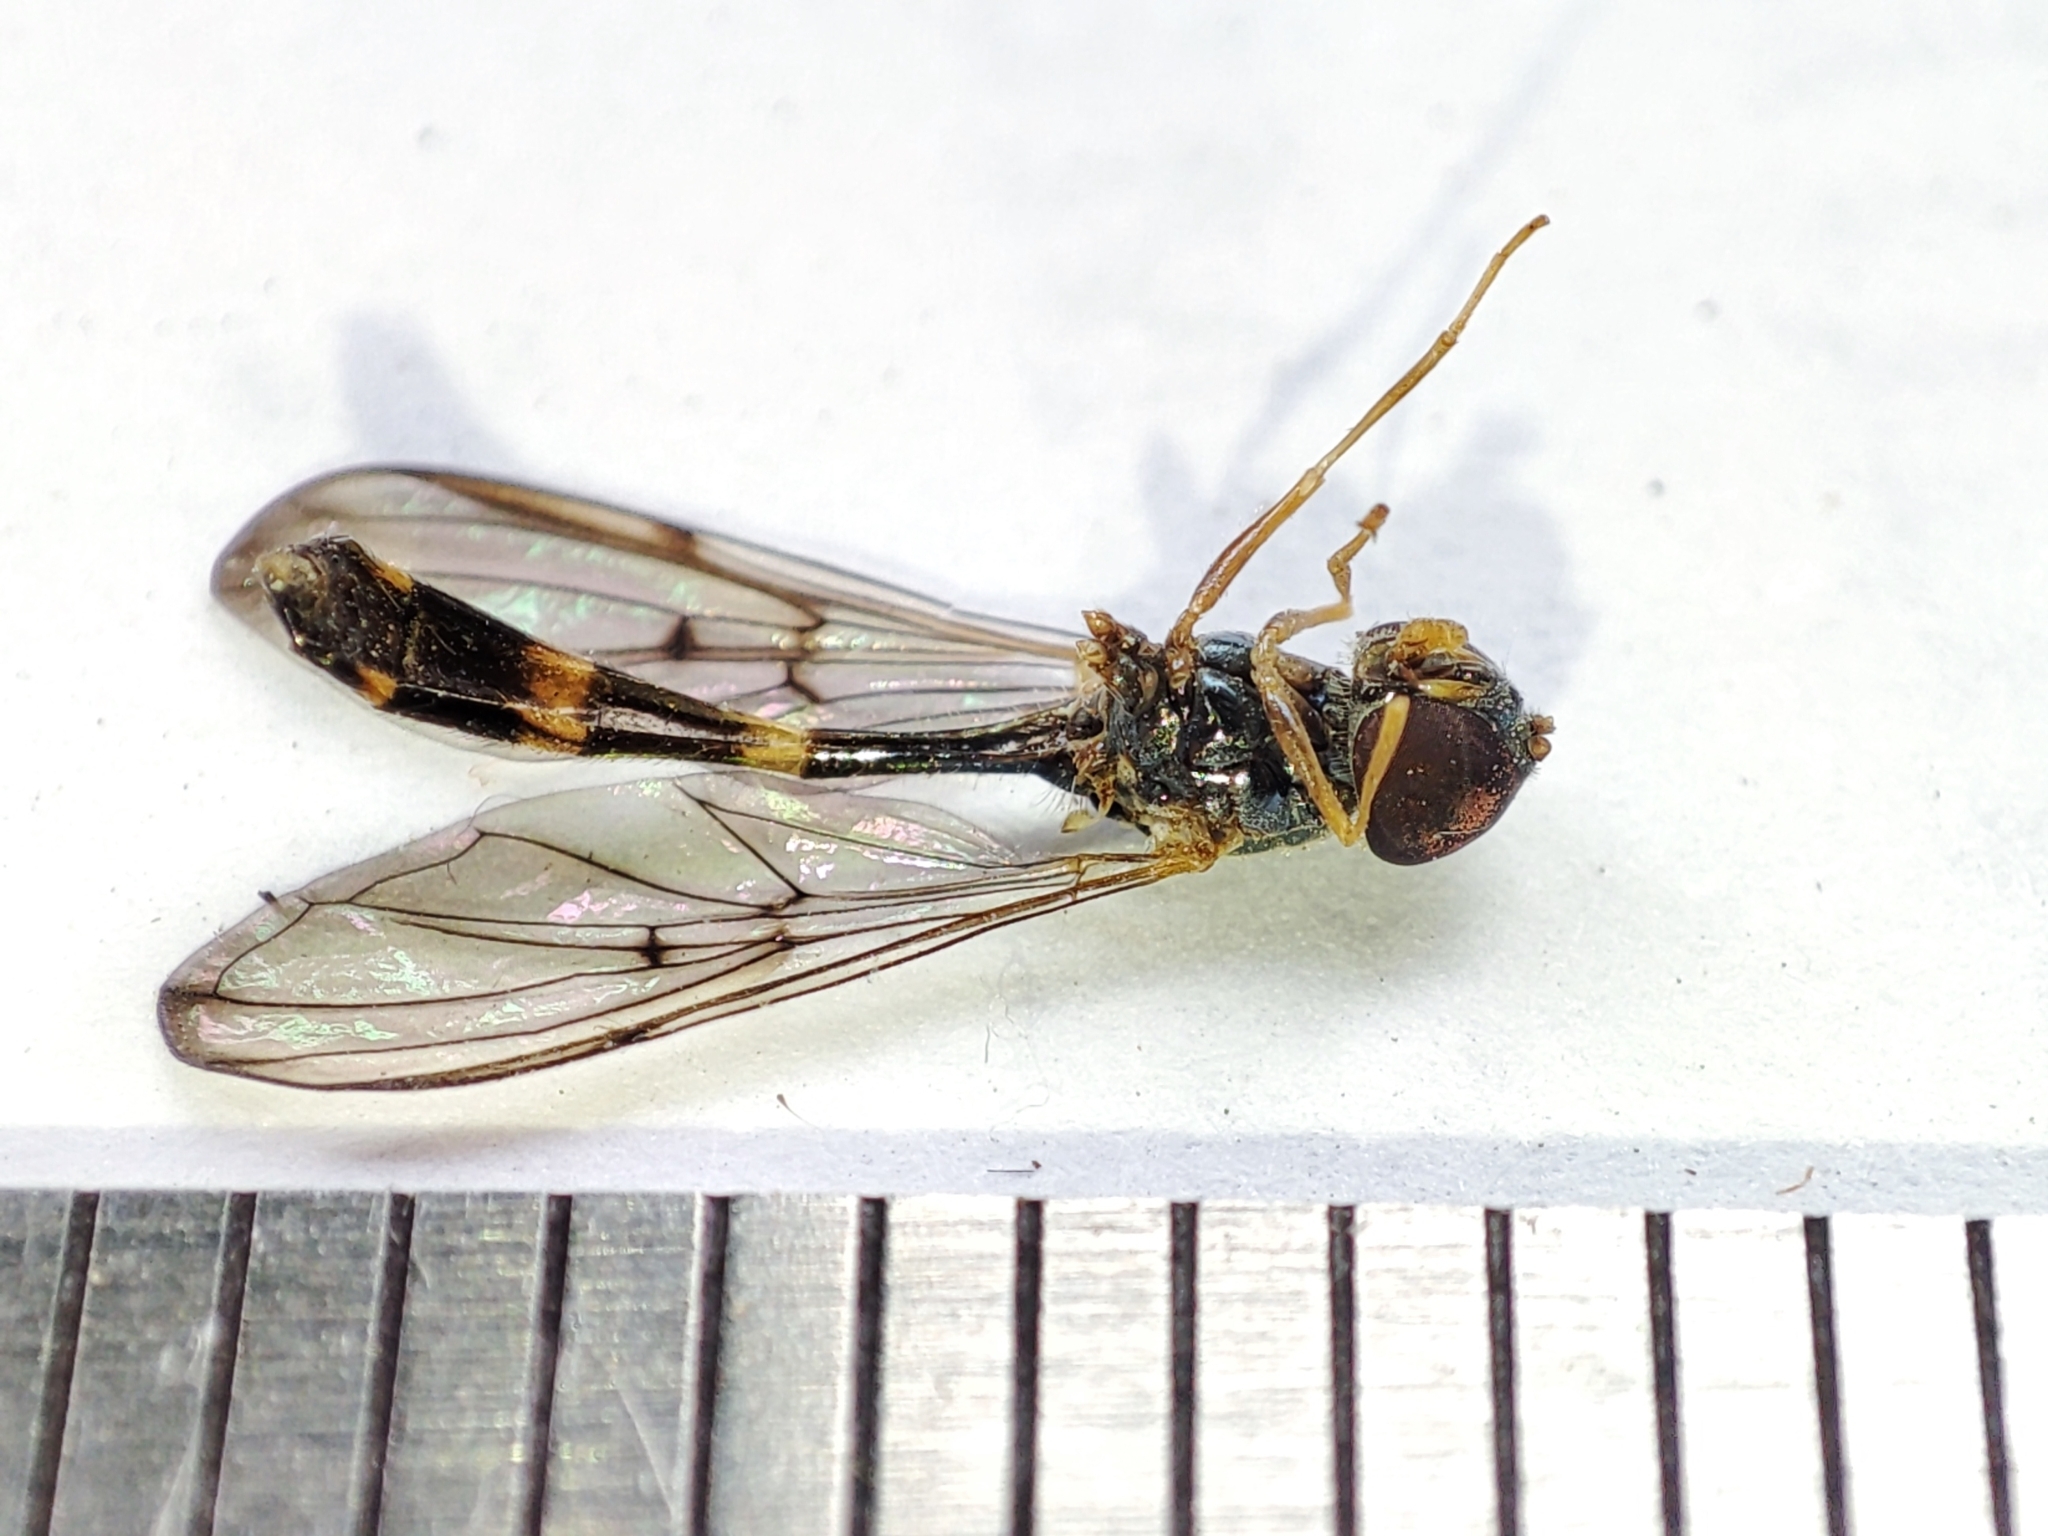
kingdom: Animalia
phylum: Arthropoda
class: Insecta
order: Diptera
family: Syrphidae
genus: Baccha
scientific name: Baccha elongata
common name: Common dainty
